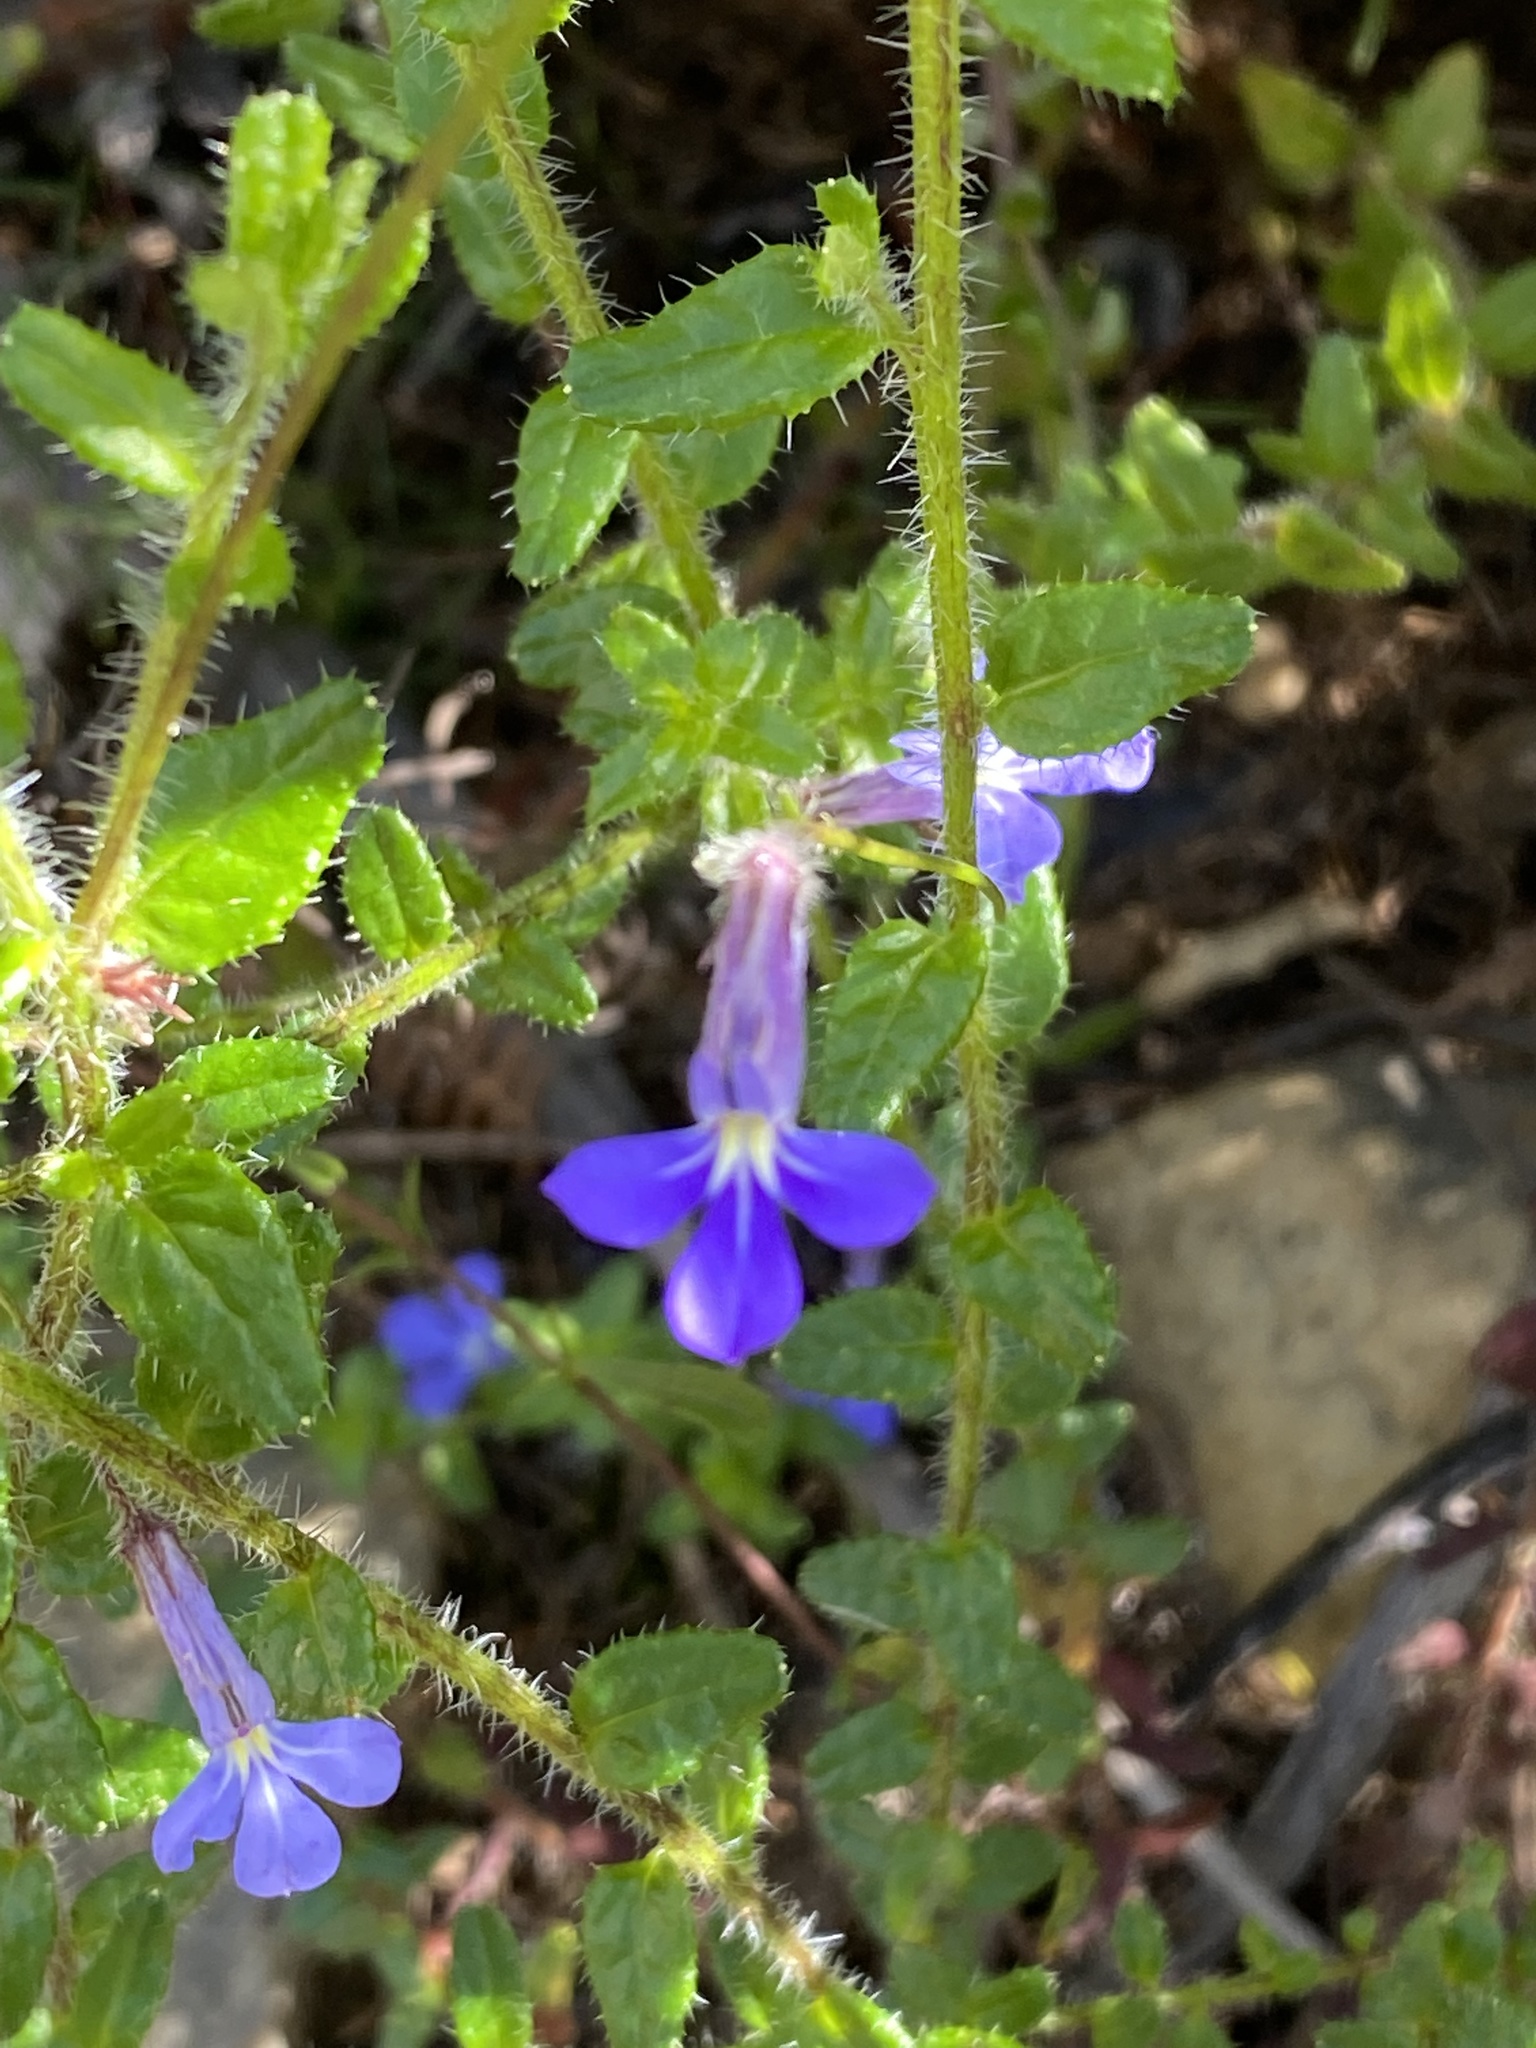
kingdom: Plantae
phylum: Tracheophyta
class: Magnoliopsida
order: Asterales
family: Campanulaceae
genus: Lobelia
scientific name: Lobelia neglecta
